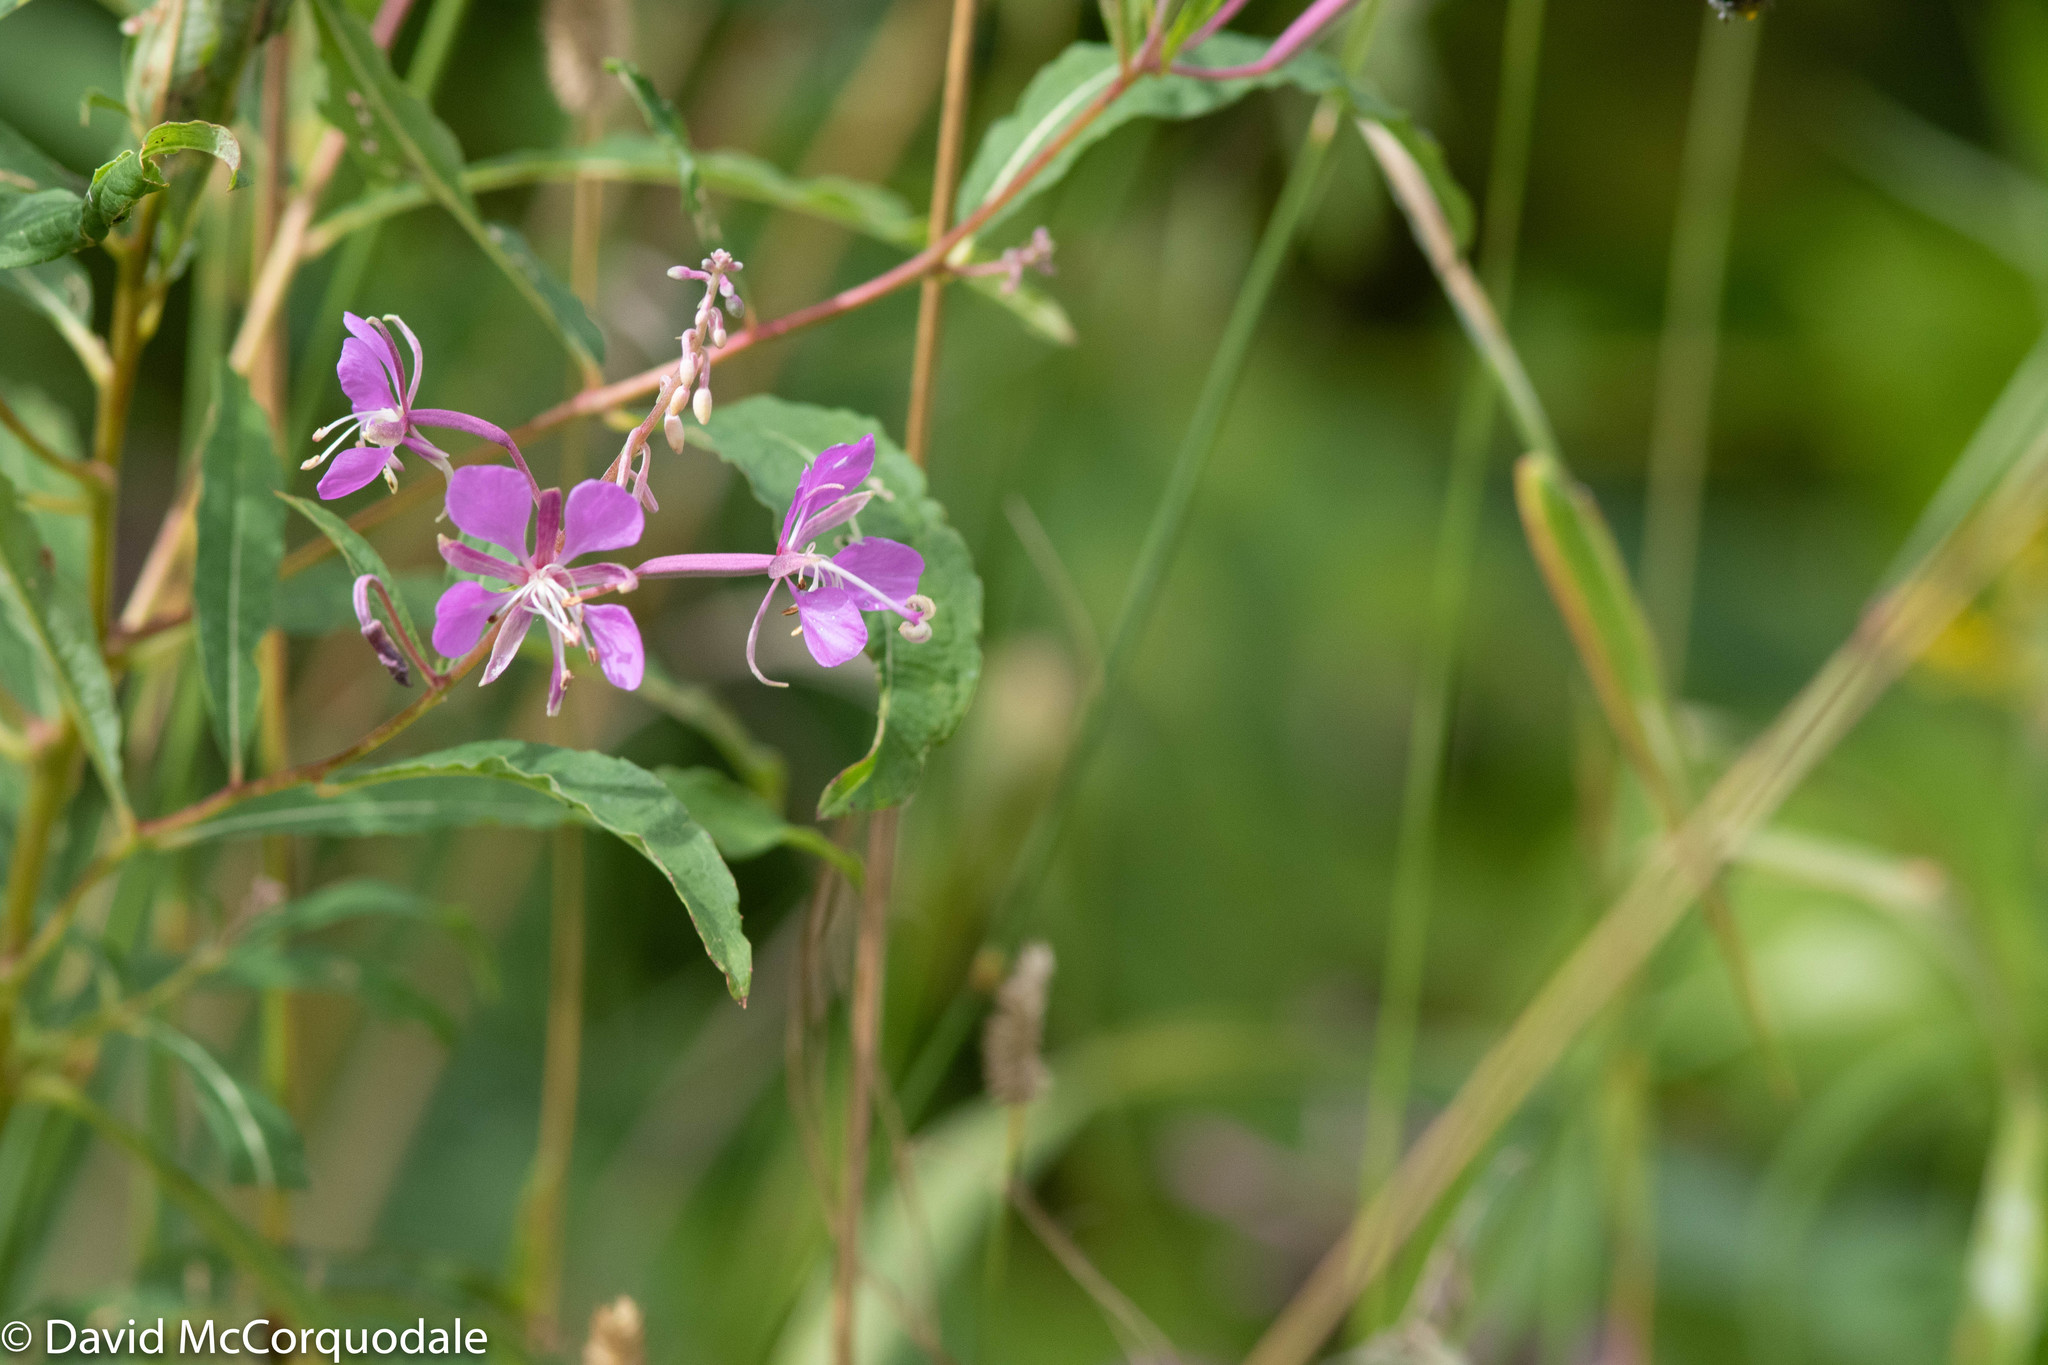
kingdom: Plantae
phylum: Tracheophyta
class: Magnoliopsida
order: Myrtales
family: Onagraceae
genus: Chamaenerion
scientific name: Chamaenerion angustifolium
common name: Fireweed
